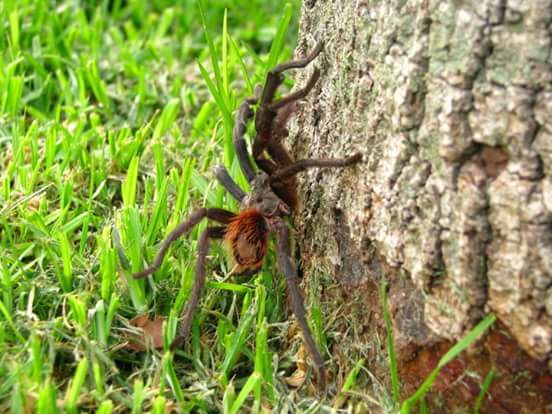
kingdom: Animalia
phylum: Arthropoda
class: Arachnida
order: Araneae
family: Theraphosidae
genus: Aphonopelma
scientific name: Aphonopelma caniceps
